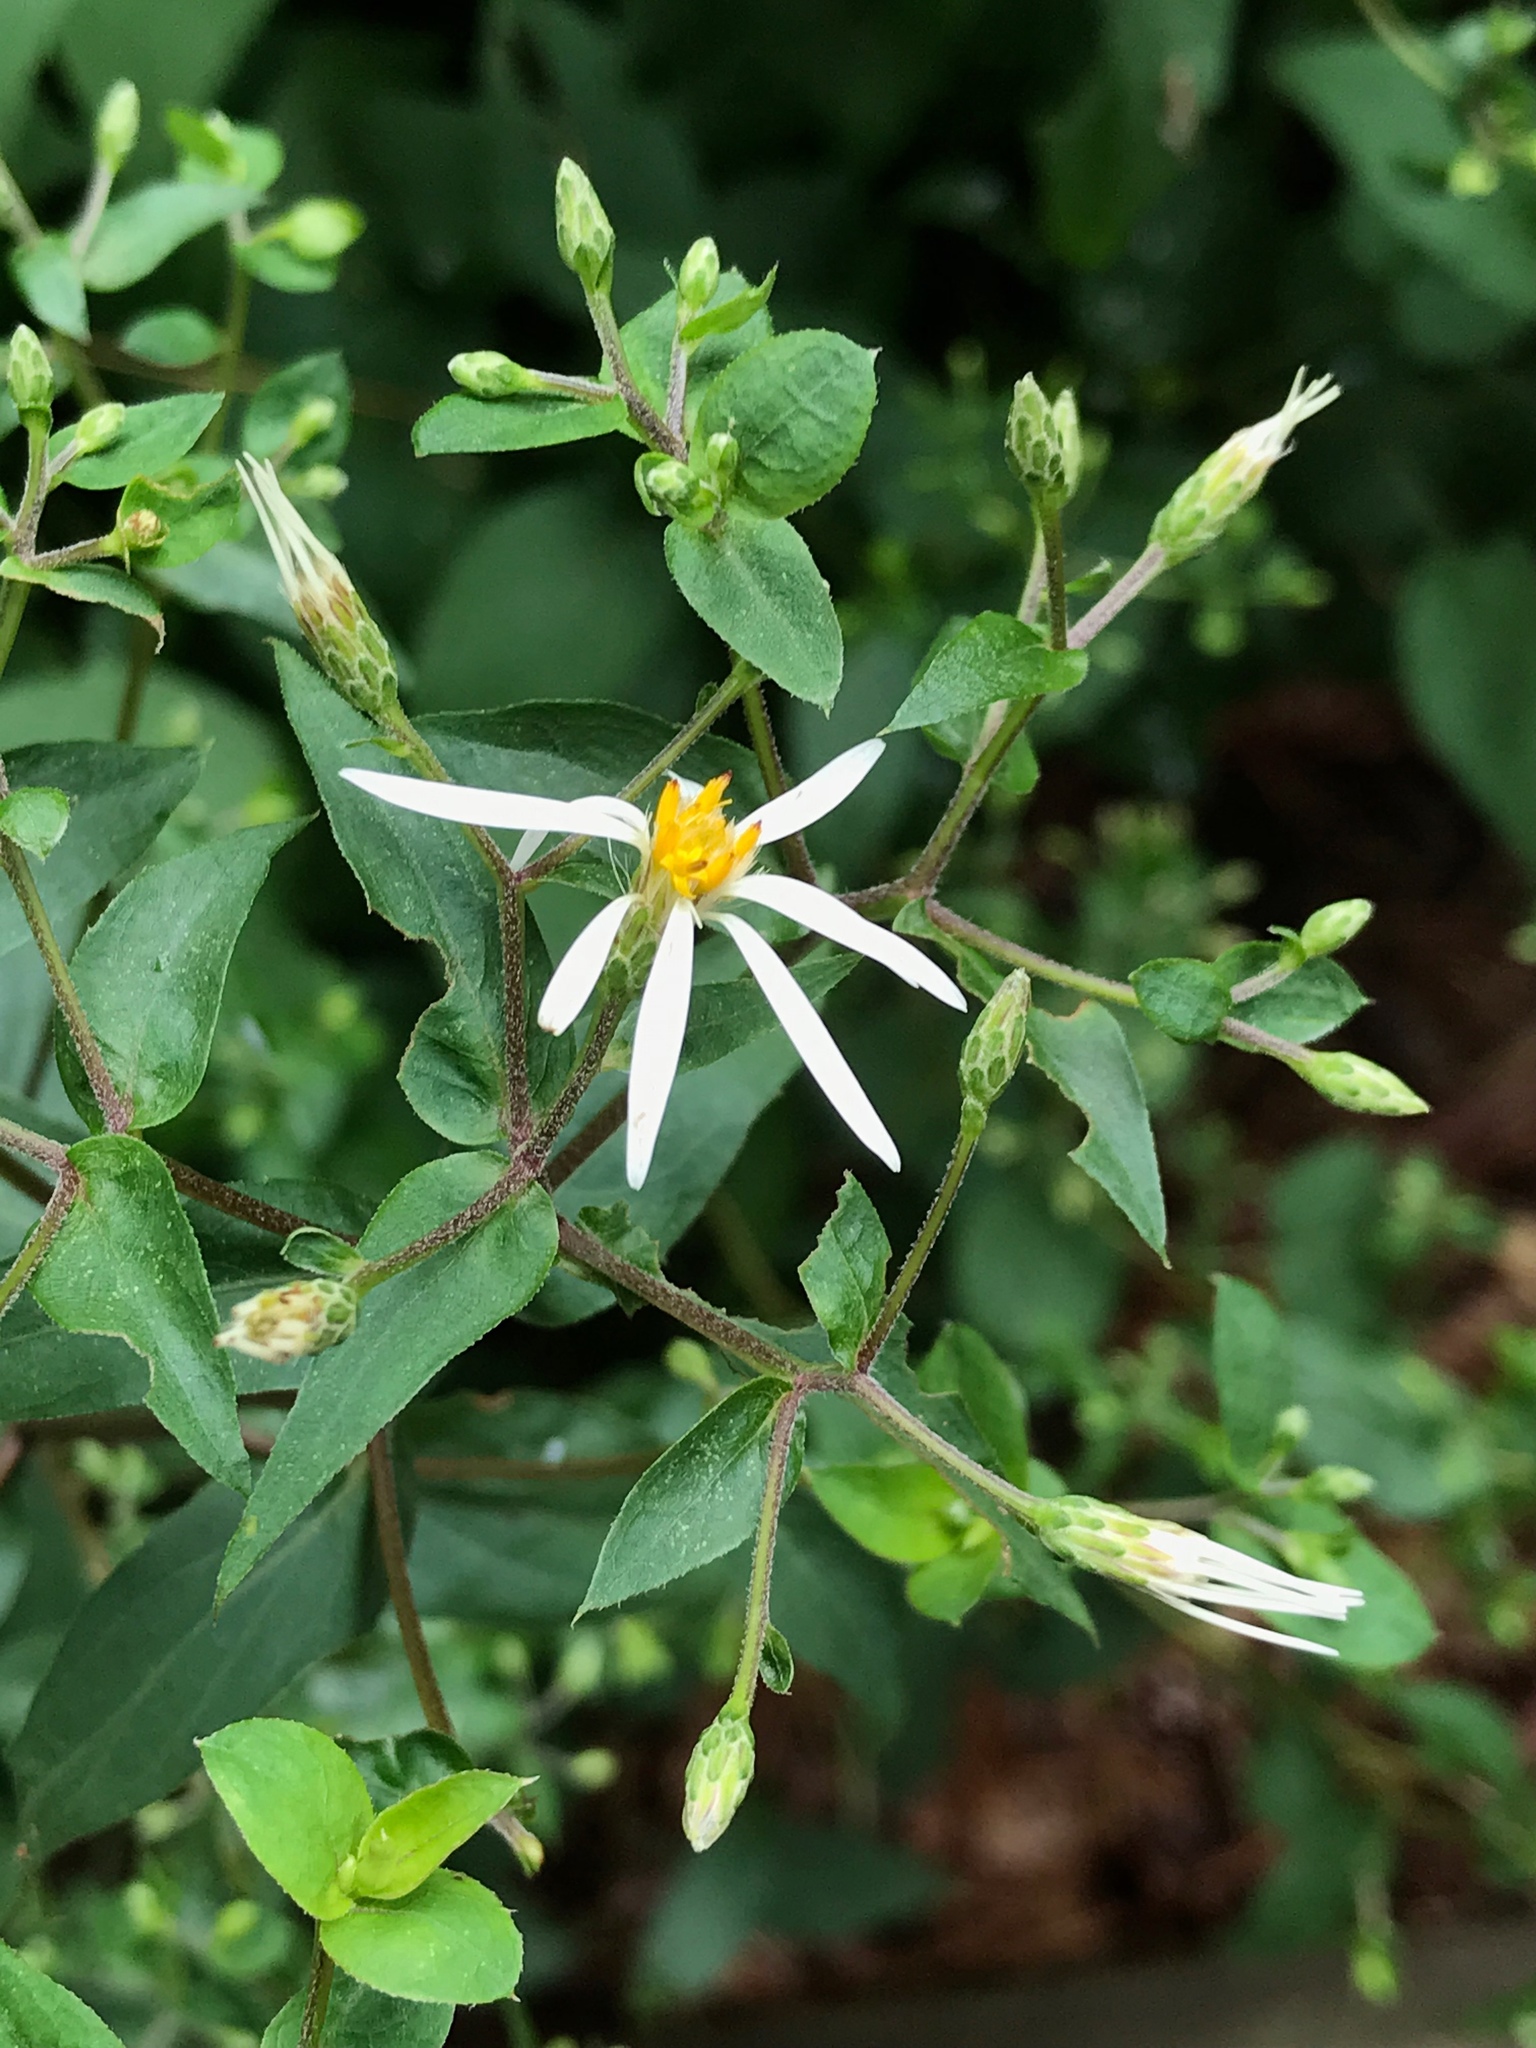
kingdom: Plantae
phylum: Tracheophyta
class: Magnoliopsida
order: Asterales
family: Asteraceae
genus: Eurybia
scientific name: Eurybia divaricata
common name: White wood aster
